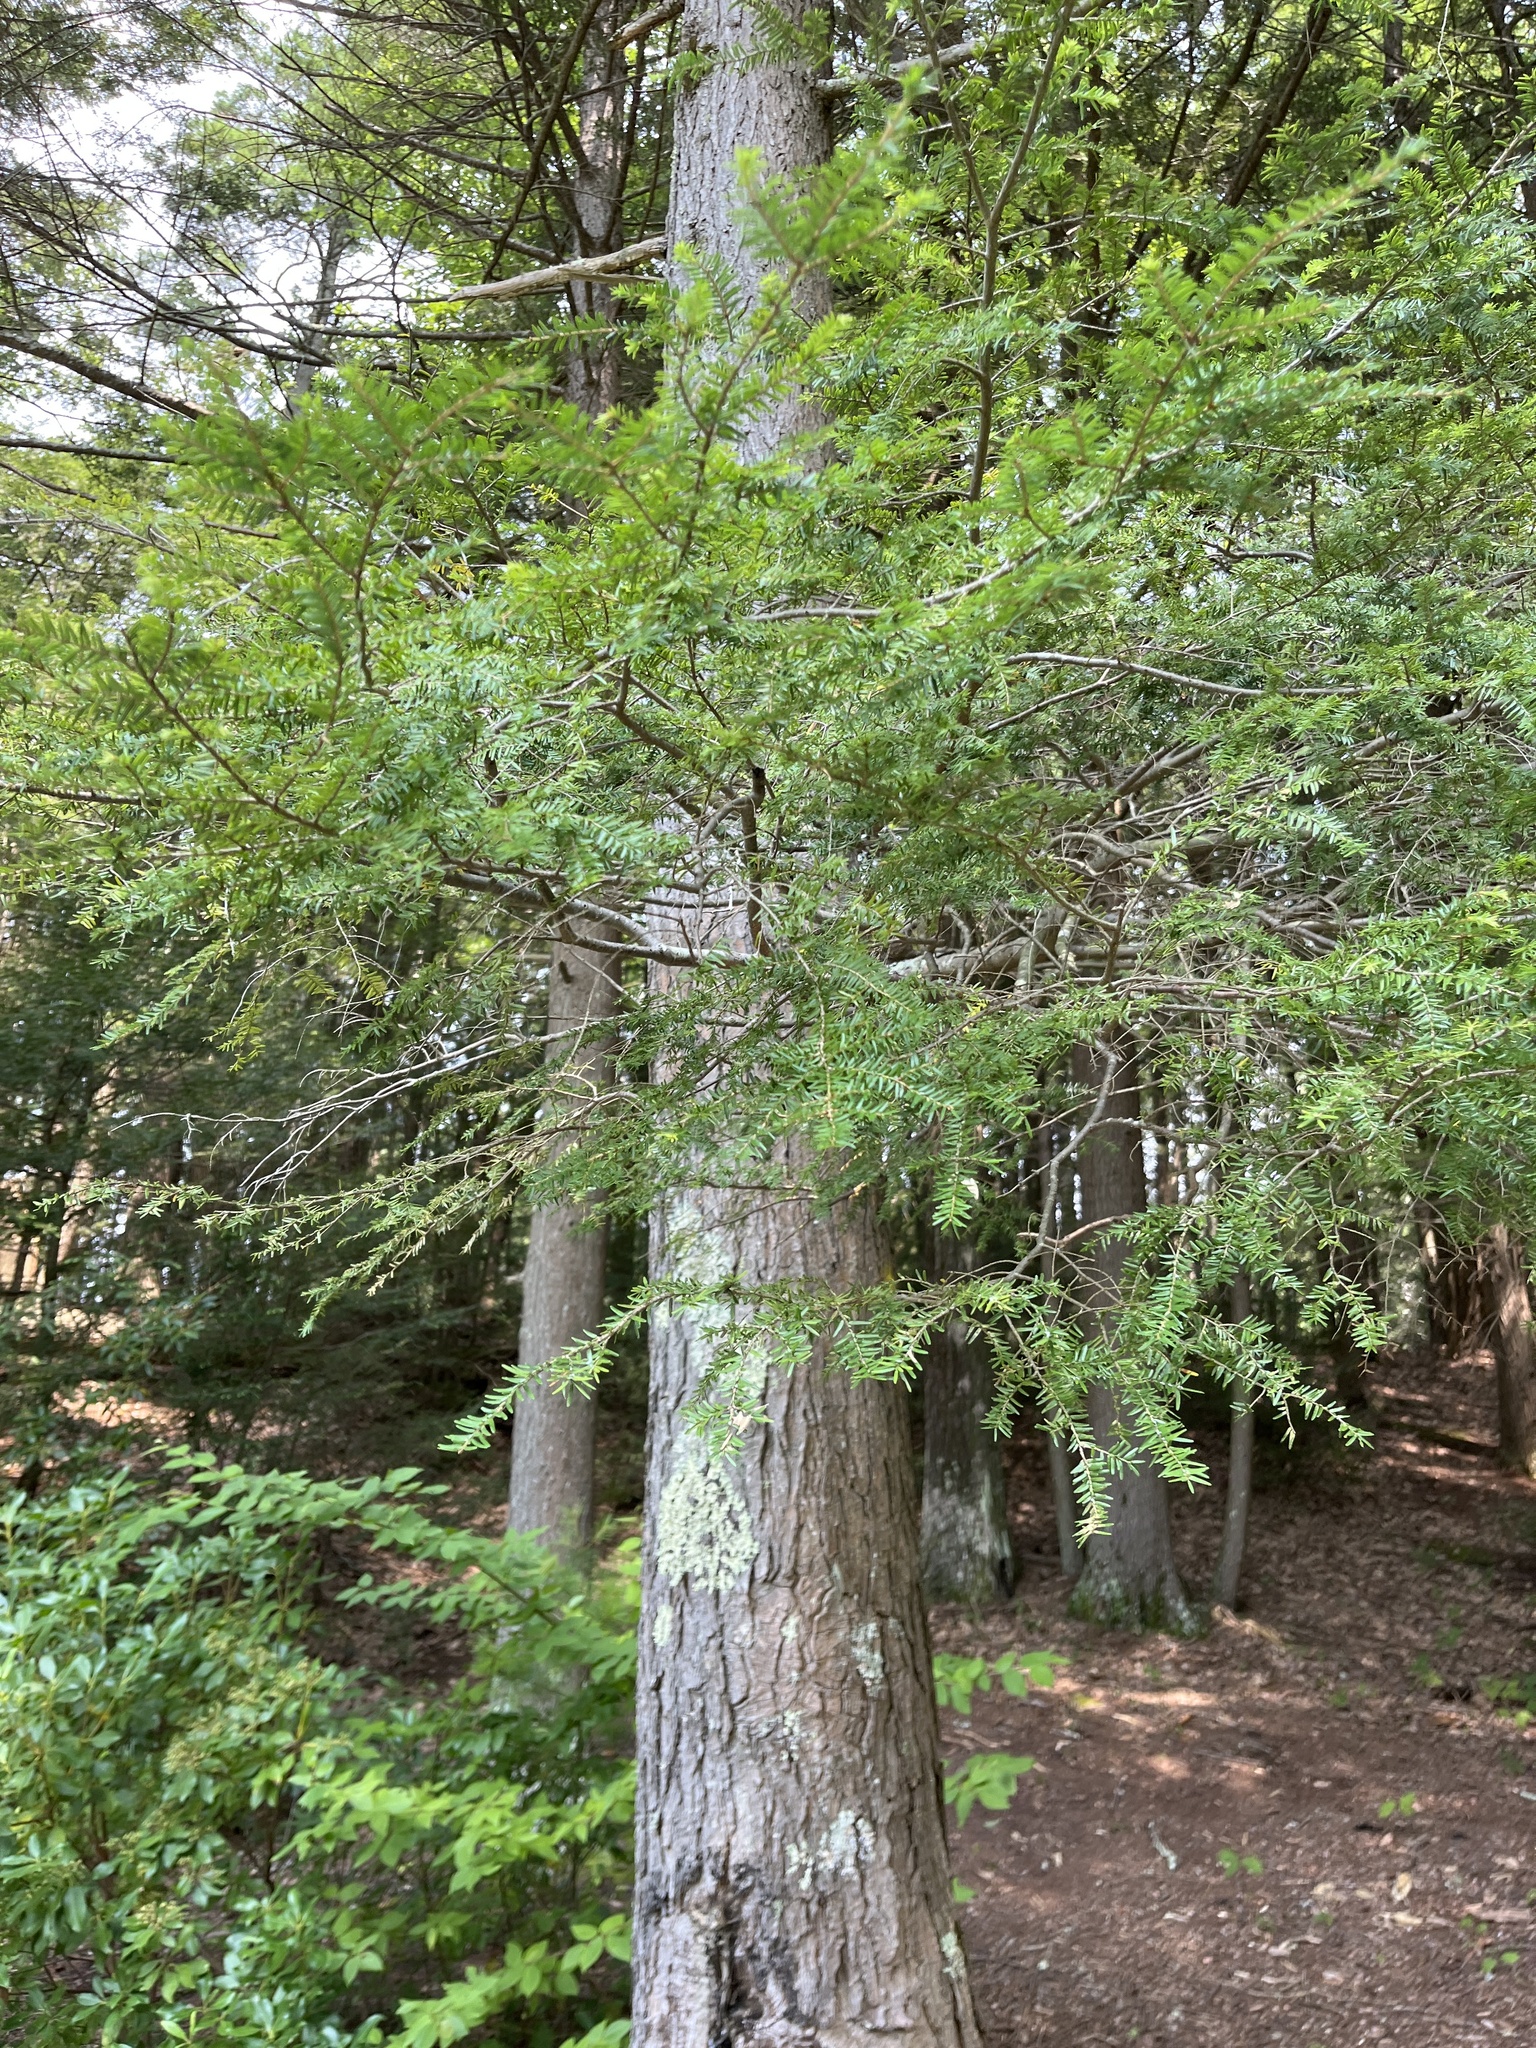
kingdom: Plantae
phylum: Tracheophyta
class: Pinopsida
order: Pinales
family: Pinaceae
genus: Tsuga
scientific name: Tsuga canadensis
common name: Eastern hemlock
